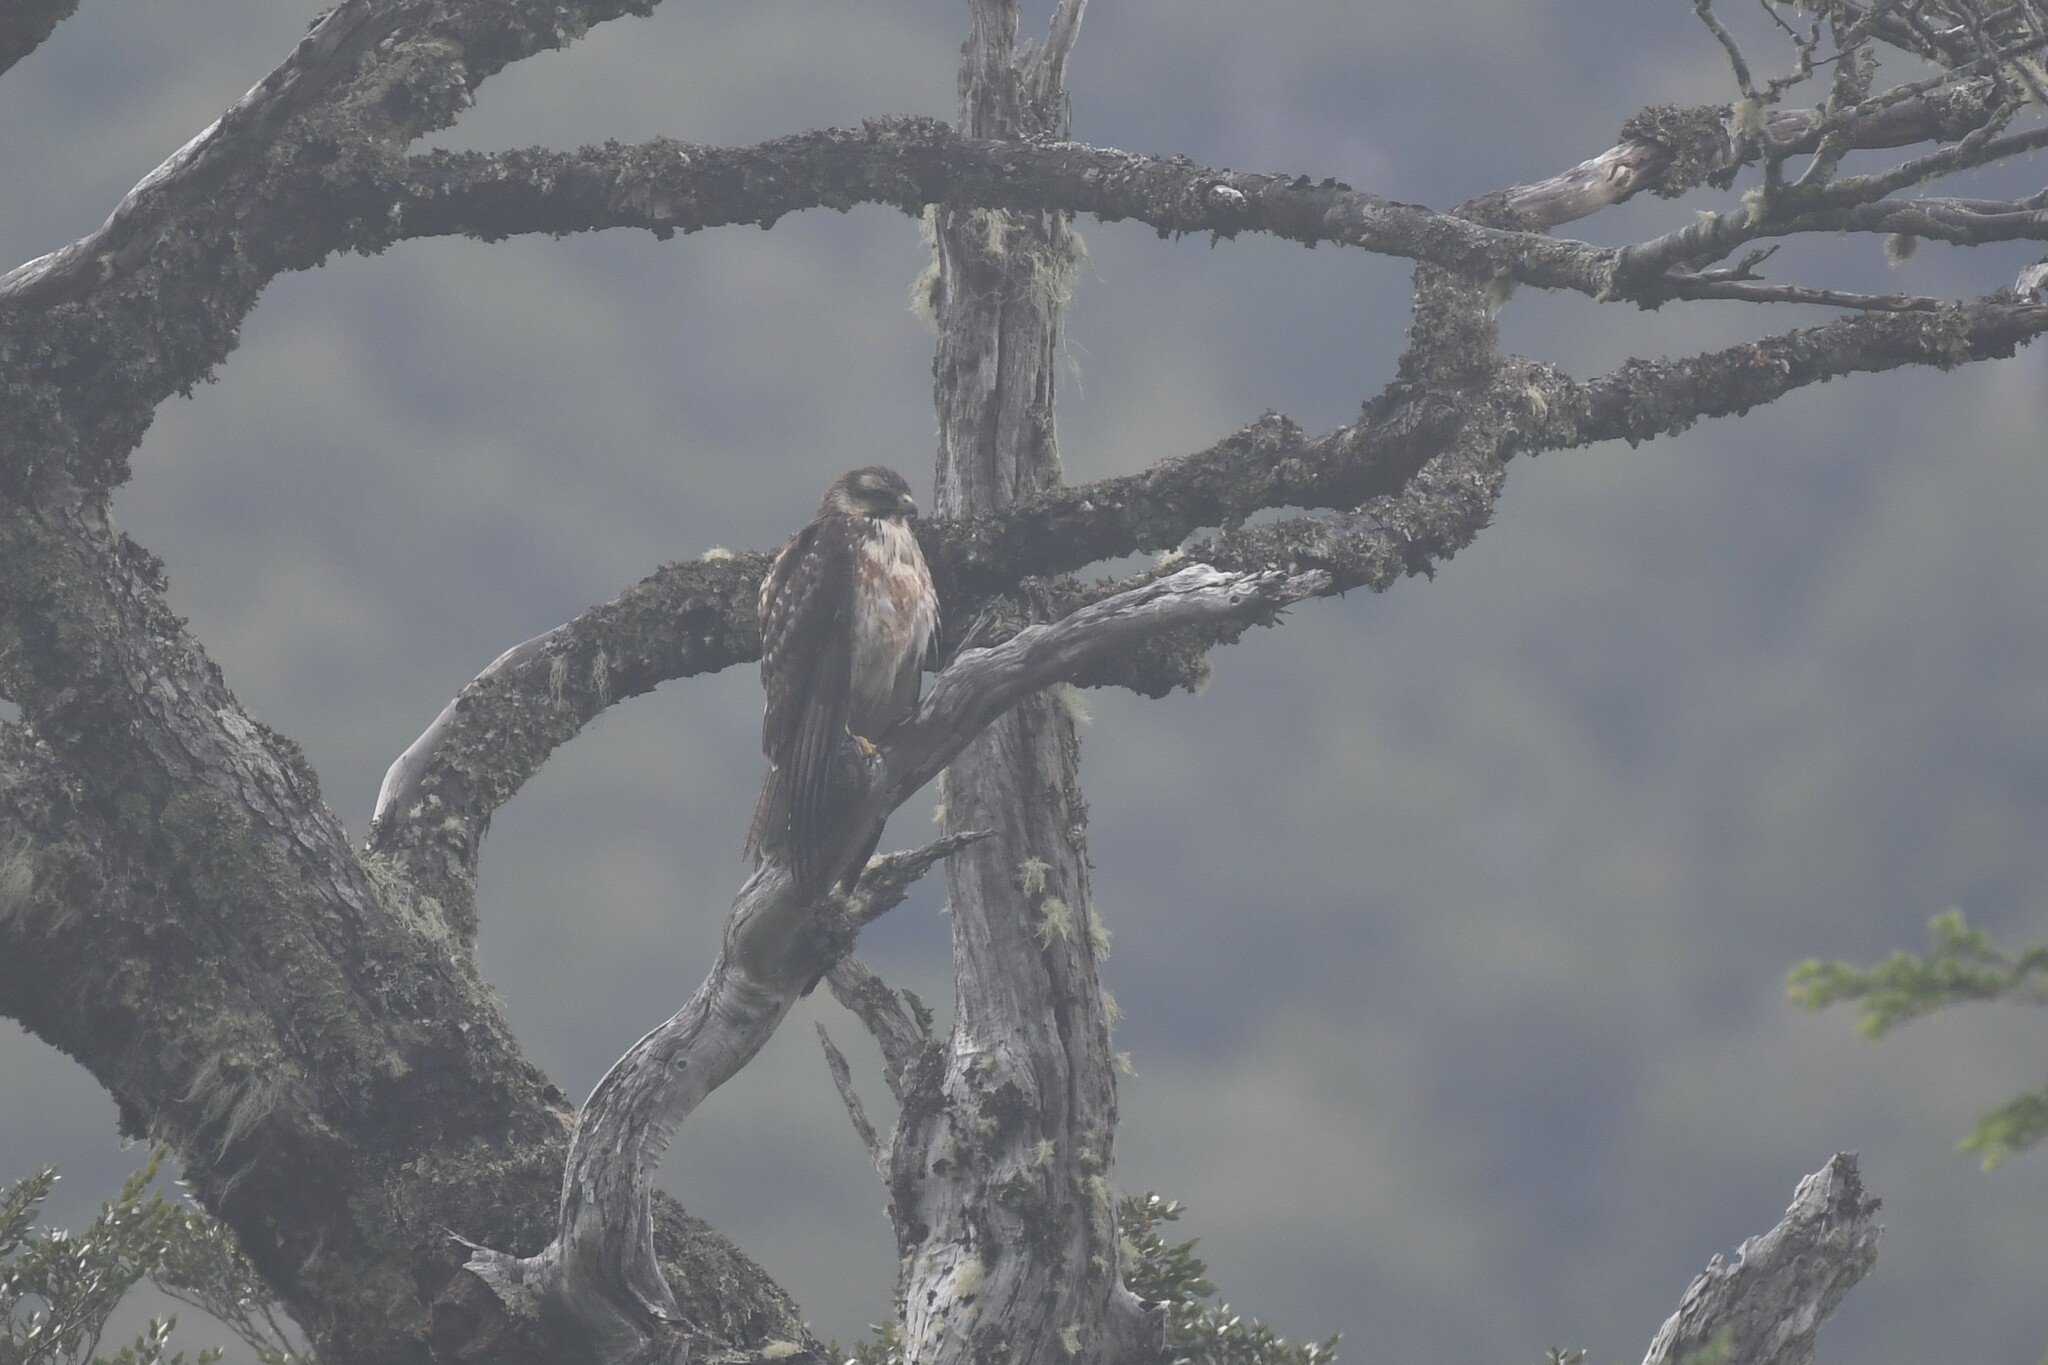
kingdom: Animalia
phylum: Chordata
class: Aves
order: Accipitriformes
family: Accipitridae
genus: Buteo
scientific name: Buteo polyosoma
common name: Variable hawk
